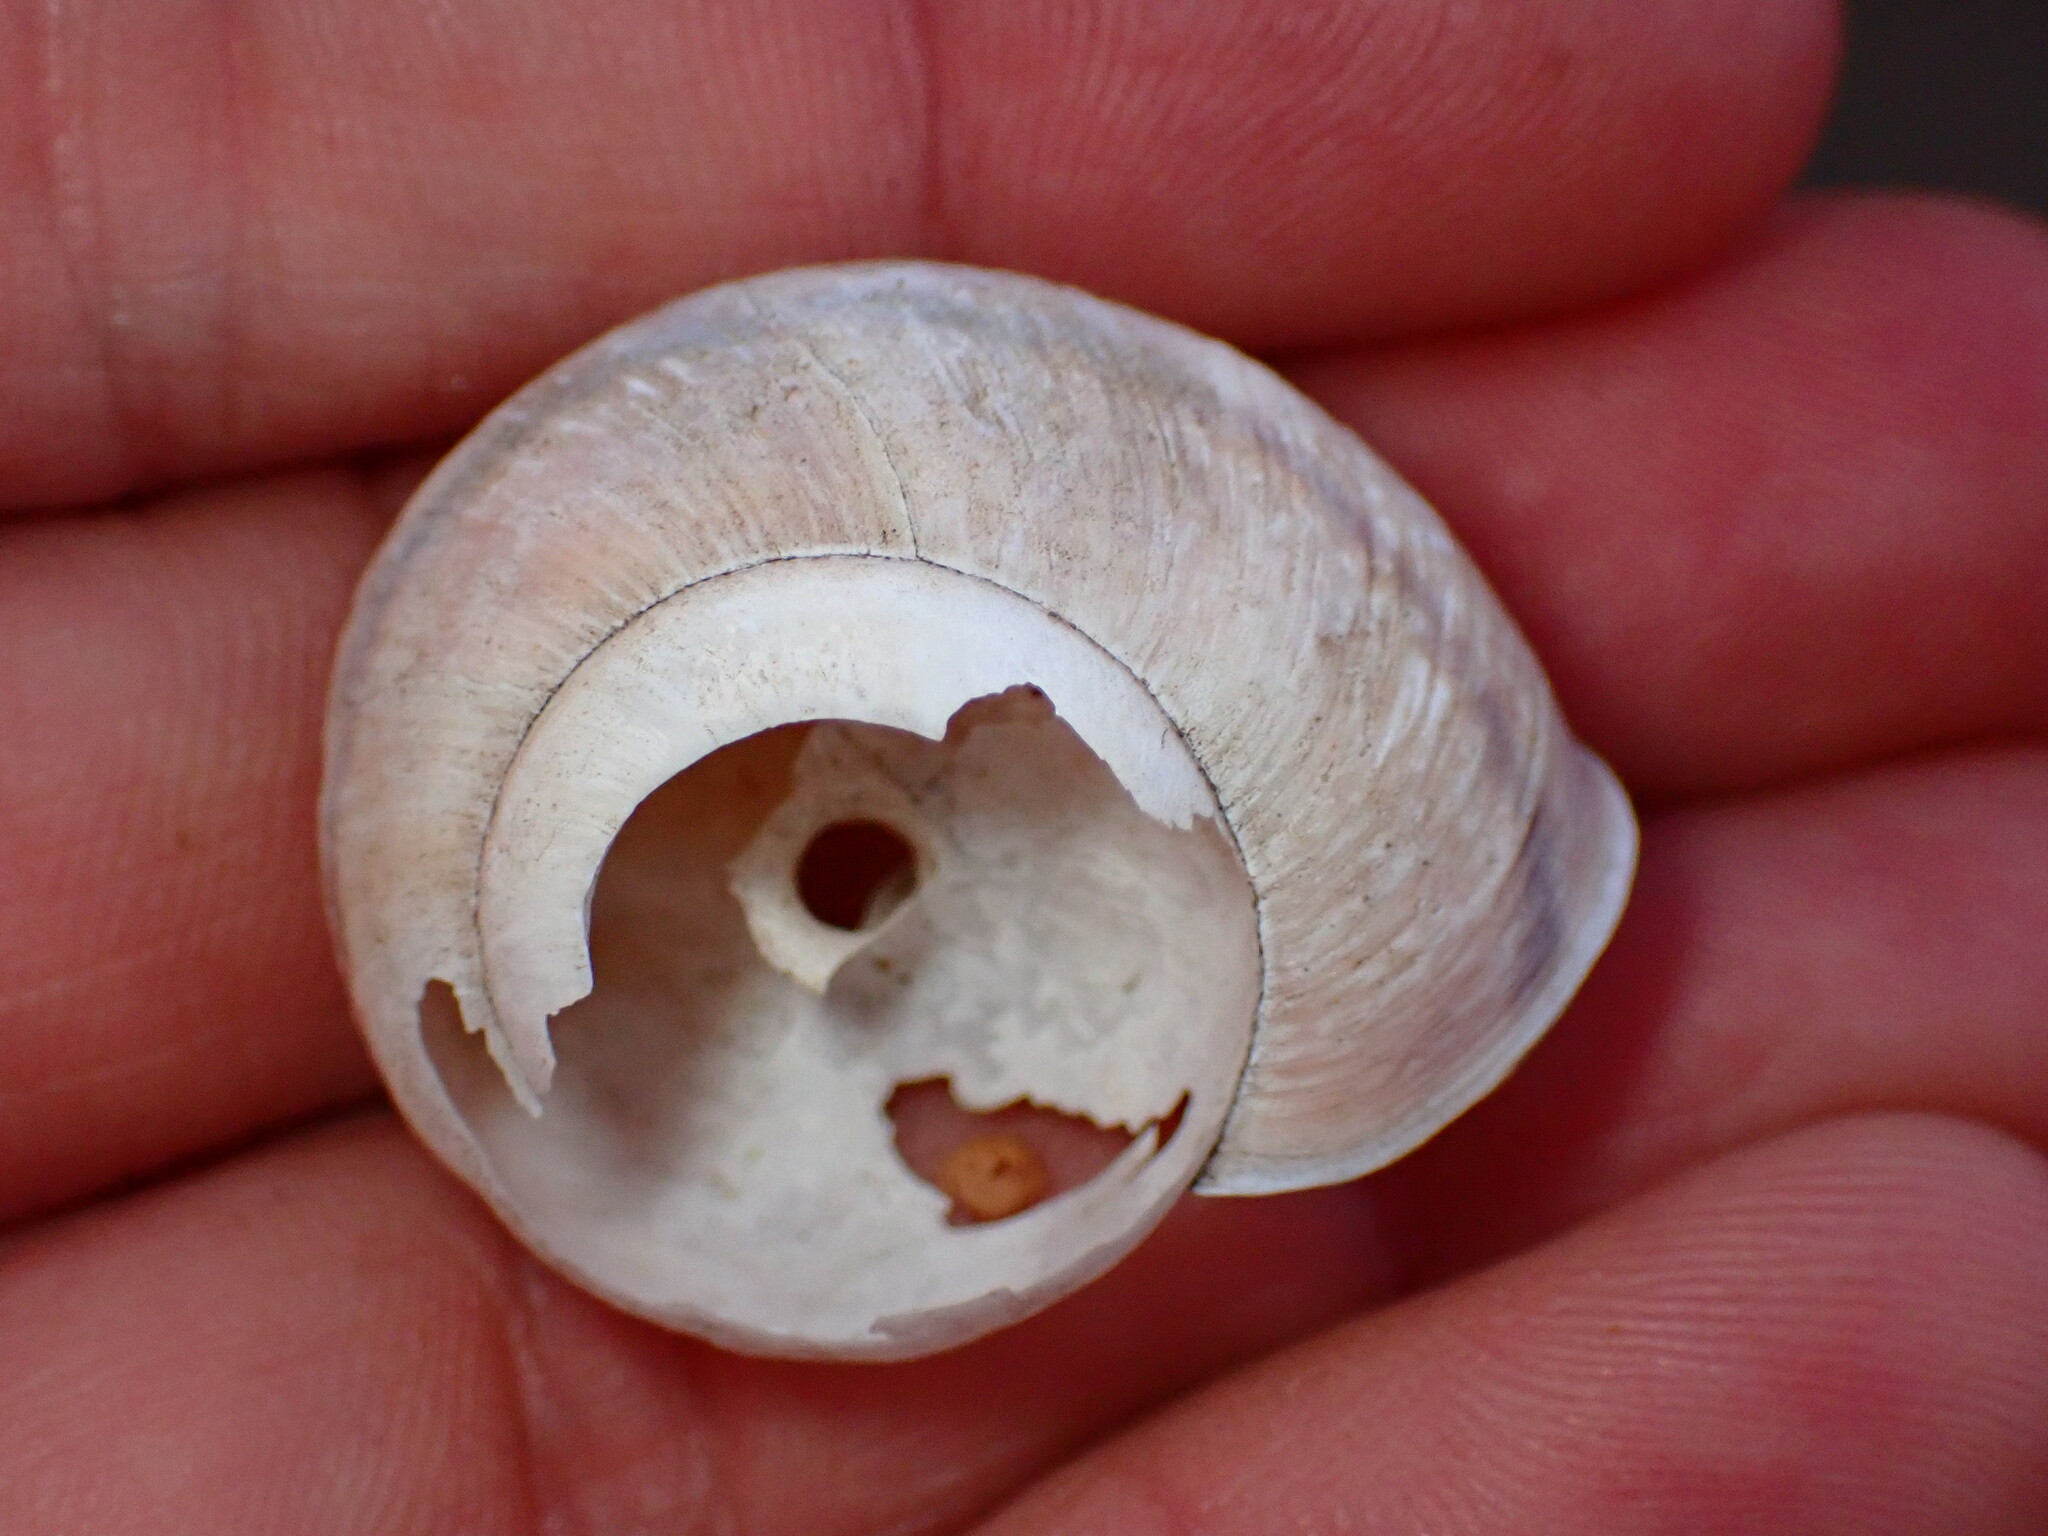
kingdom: Animalia
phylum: Mollusca
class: Gastropoda
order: Stylommatophora
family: Xanthonychidae
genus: Helminthoglypta
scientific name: Helminthoglypta arrosa
